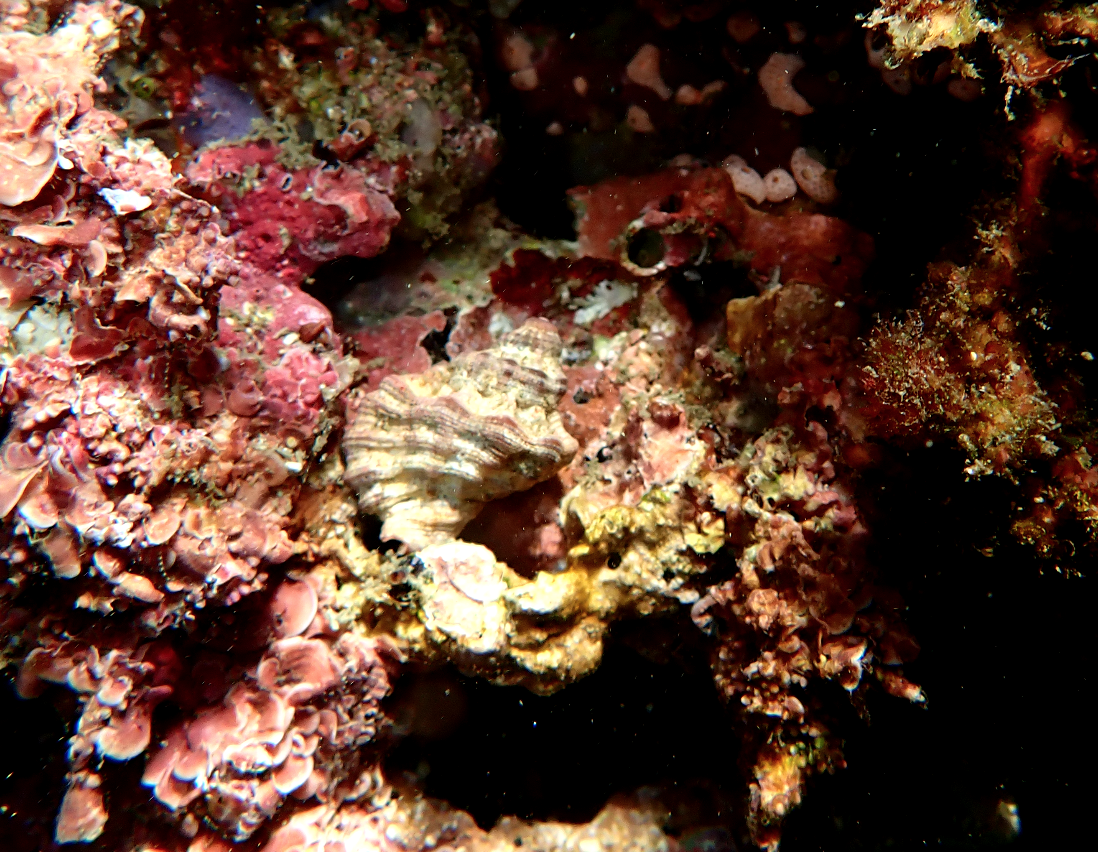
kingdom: Animalia
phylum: Mollusca
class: Gastropoda
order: Littorinimorpha
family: Cymatiidae
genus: Turritriton
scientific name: Turritriton labiosus
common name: Lip triton
